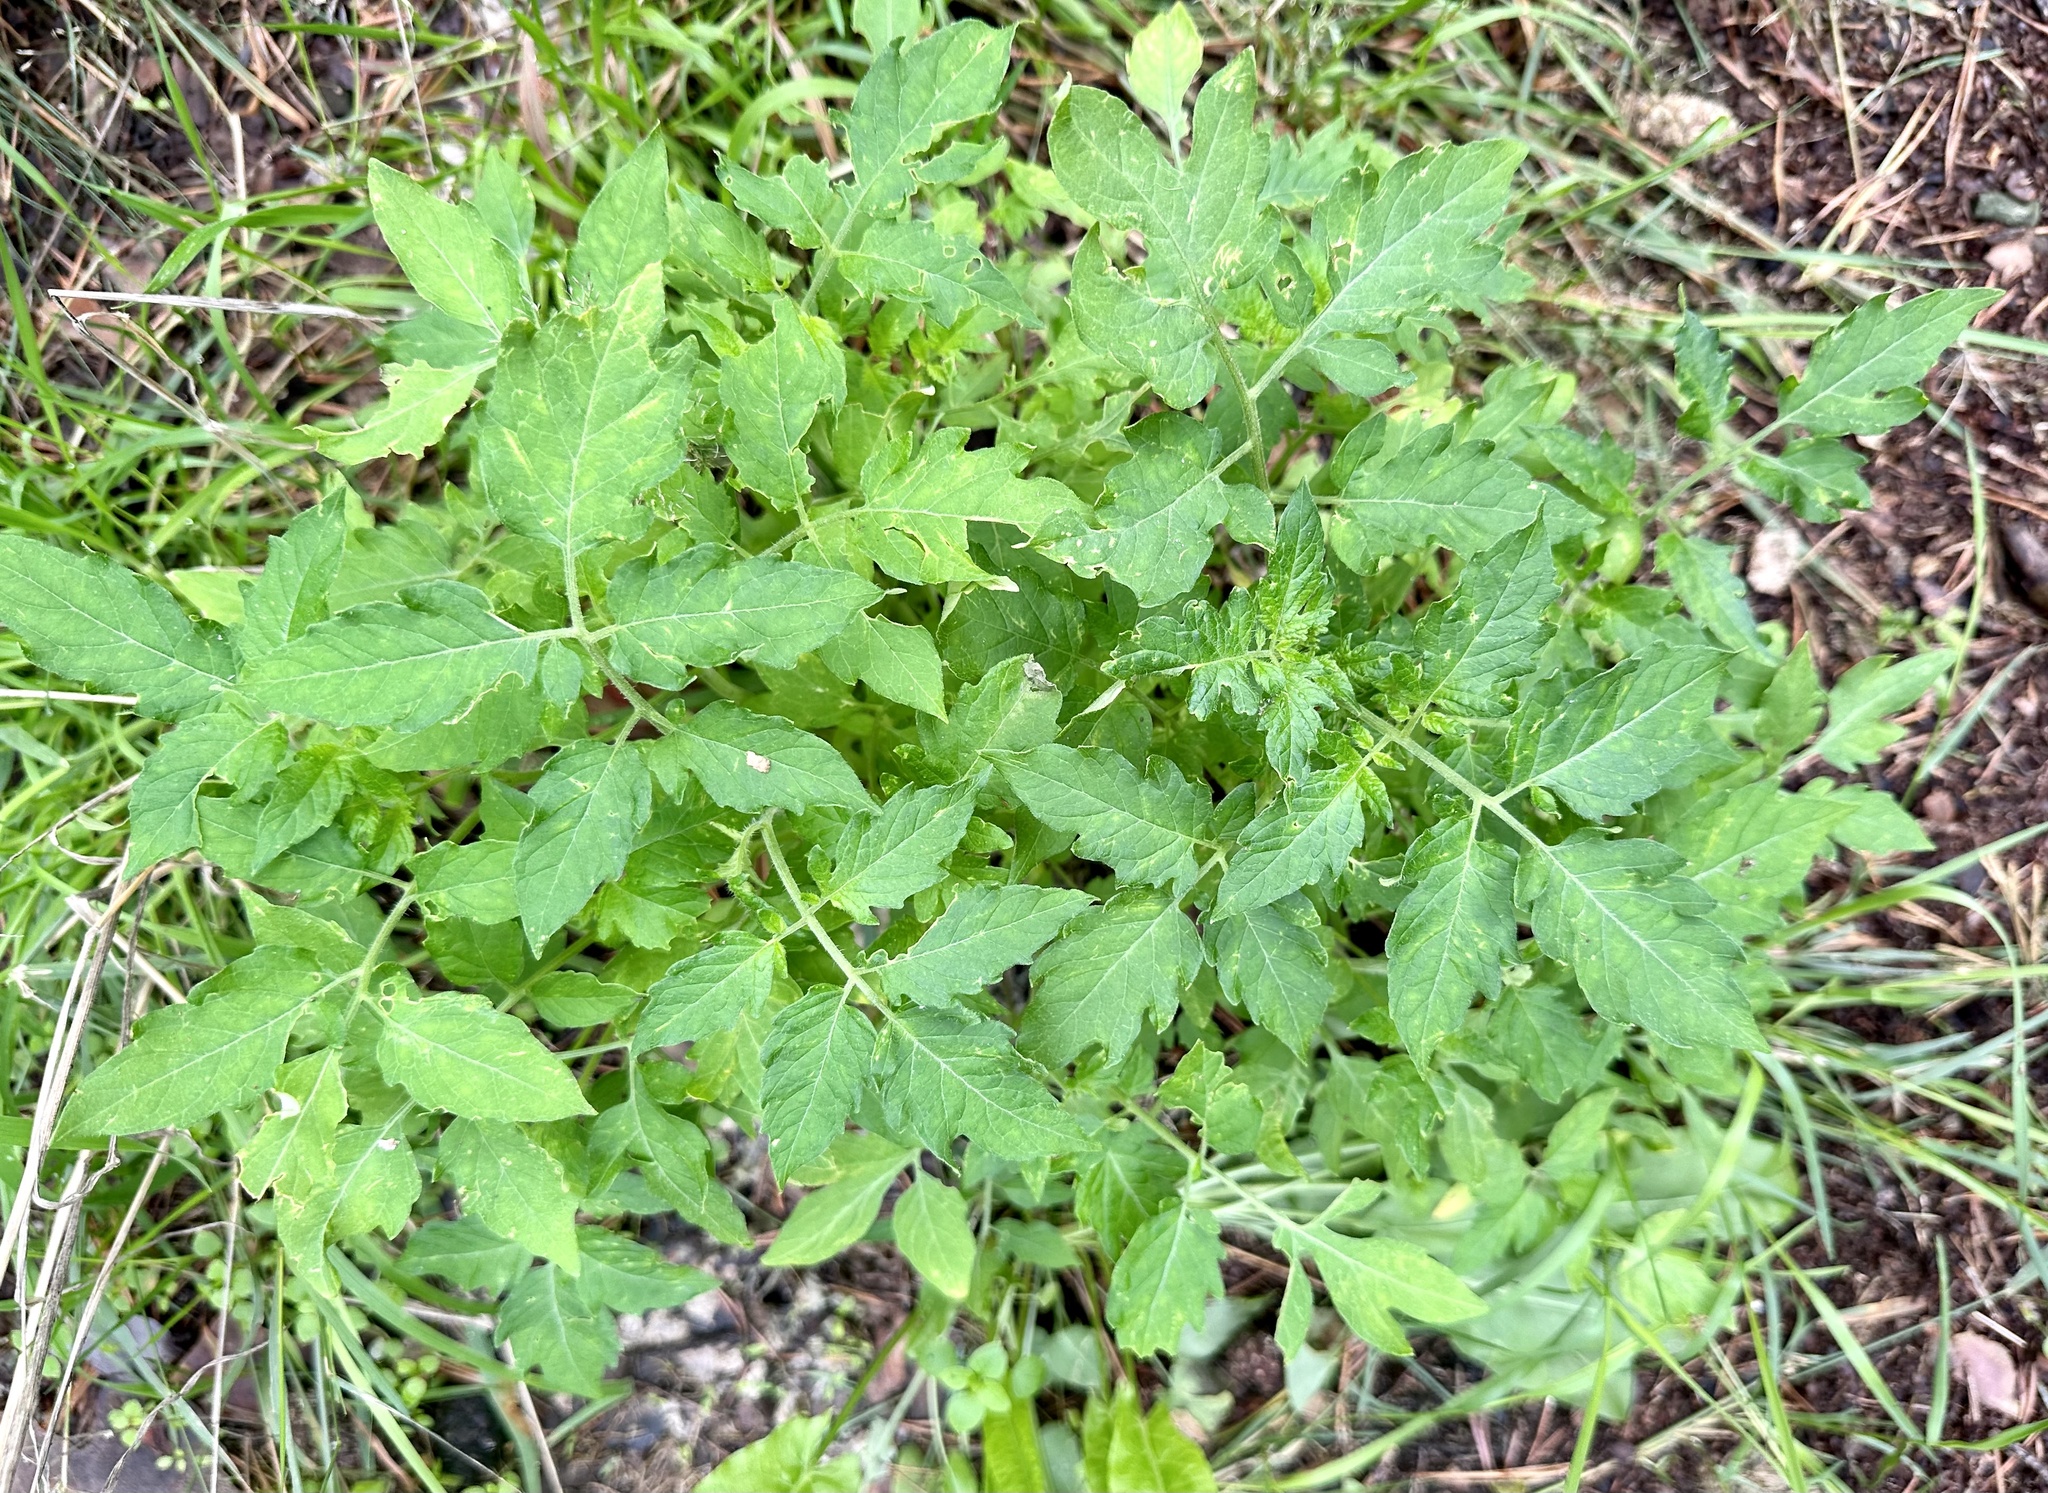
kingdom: Plantae
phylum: Tracheophyta
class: Magnoliopsida
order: Solanales
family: Solanaceae
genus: Solanum
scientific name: Solanum lycopersicum
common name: Garden tomato
